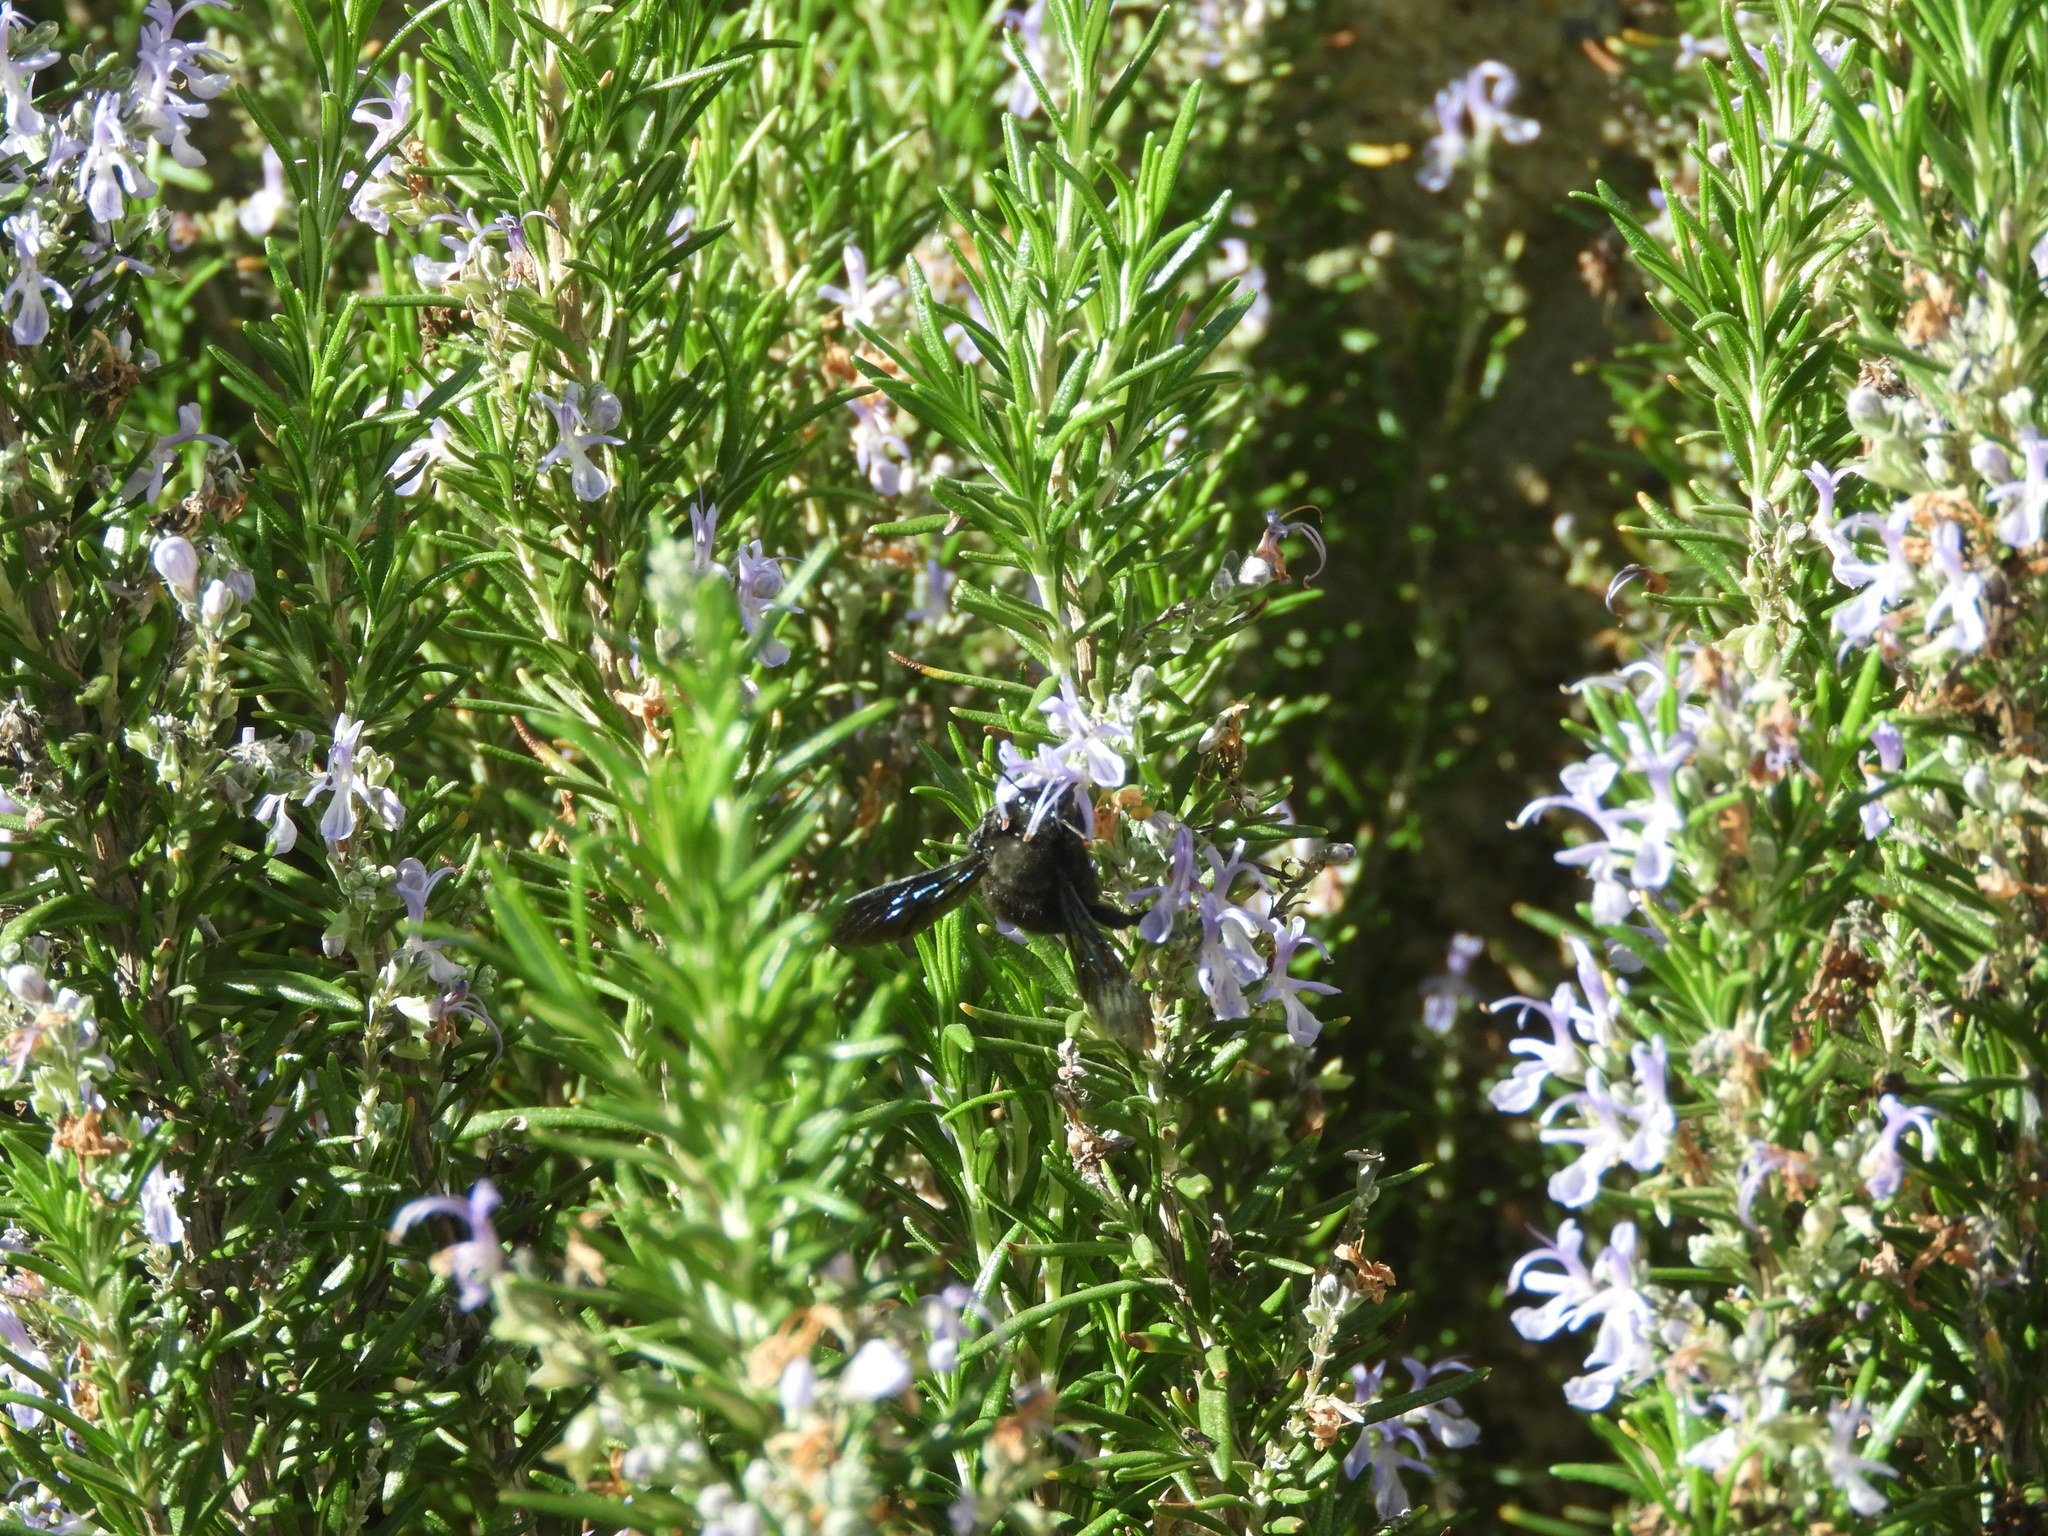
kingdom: Animalia
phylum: Arthropoda
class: Insecta
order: Hymenoptera
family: Apidae
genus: Xylocopa
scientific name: Xylocopa violacea
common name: Violet carpenter bee
